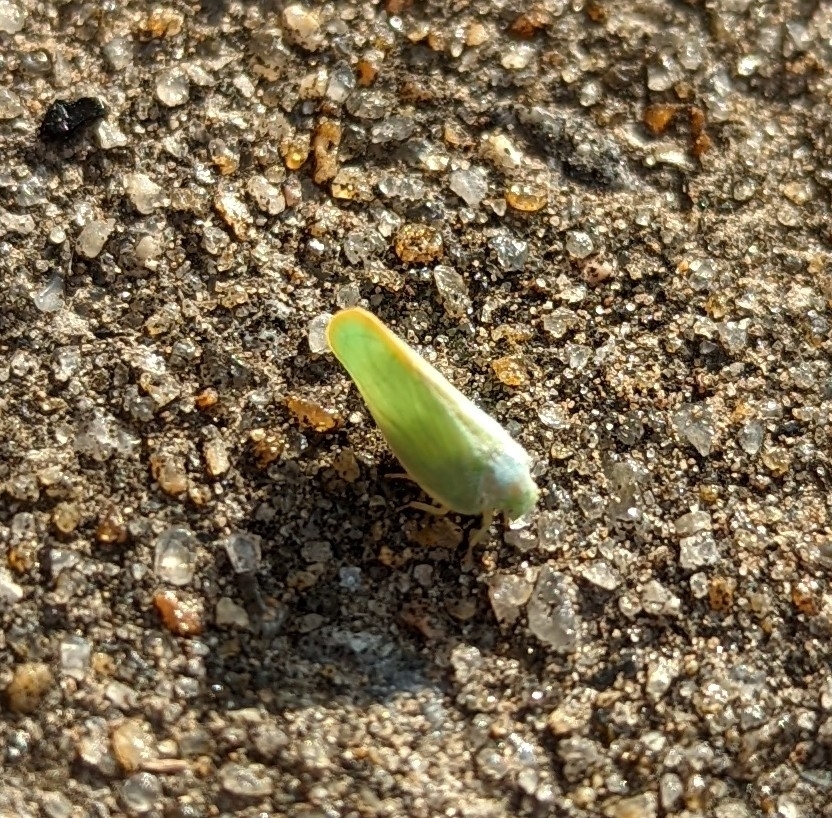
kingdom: Animalia
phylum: Arthropoda
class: Insecta
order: Hemiptera
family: Flatidae
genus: Ormenoides
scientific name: Ormenoides venusta
